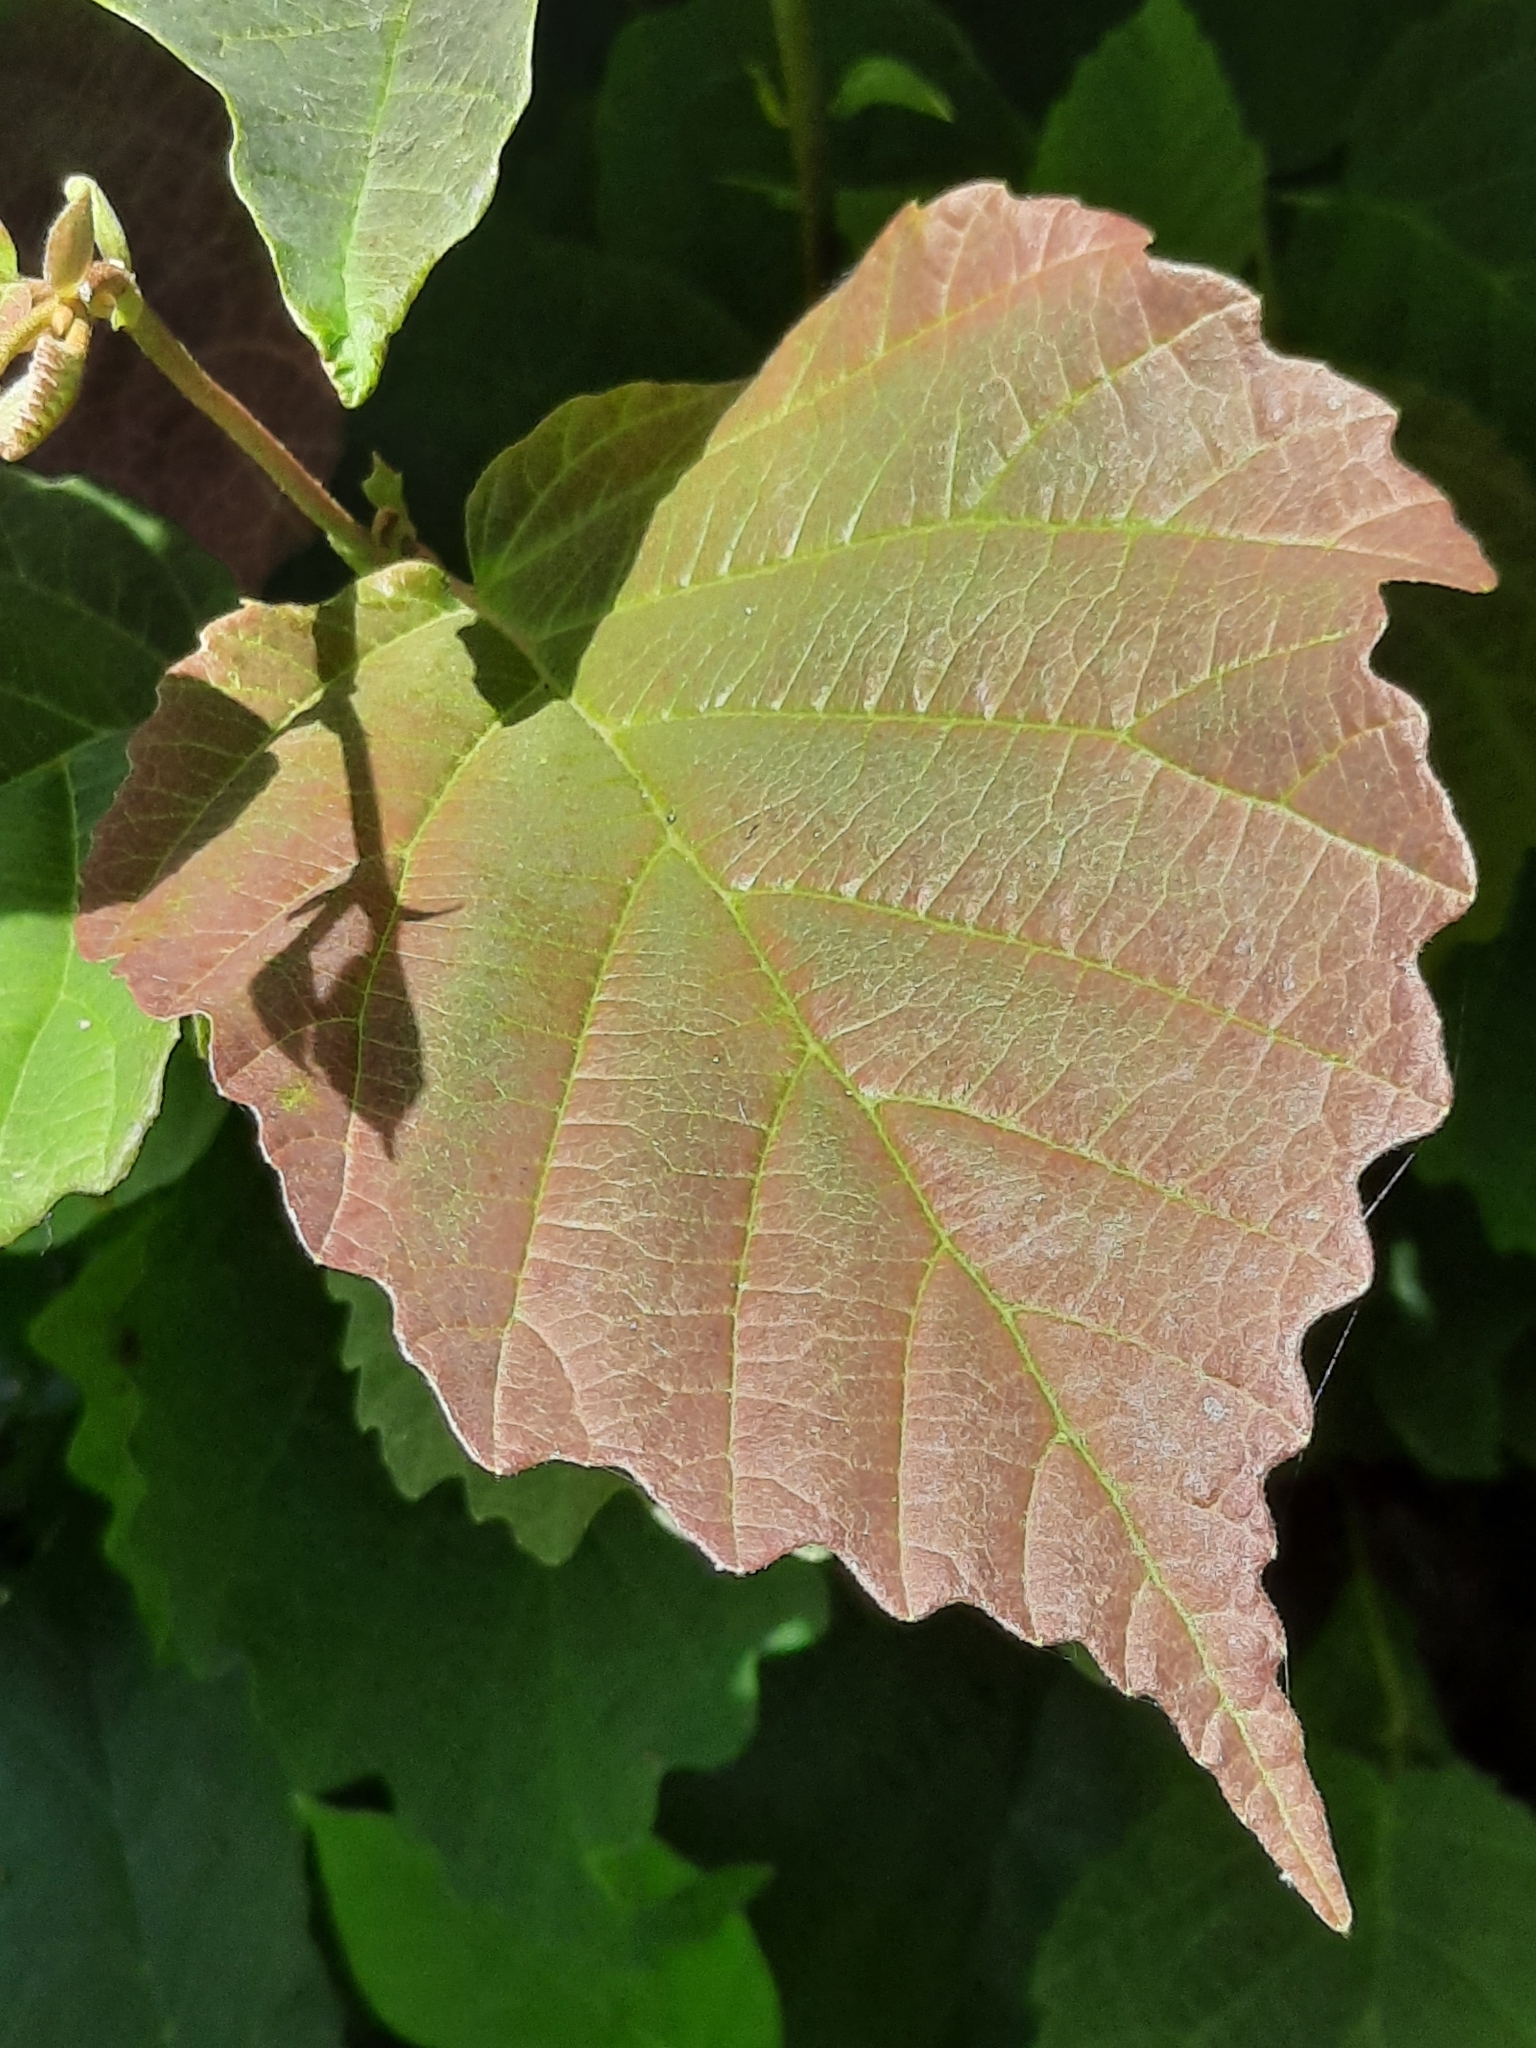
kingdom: Plantae
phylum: Tracheophyta
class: Magnoliopsida
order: Saxifragales
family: Hamamelidaceae
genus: Hamamelis
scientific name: Hamamelis virginiana
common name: Witch-hazel
